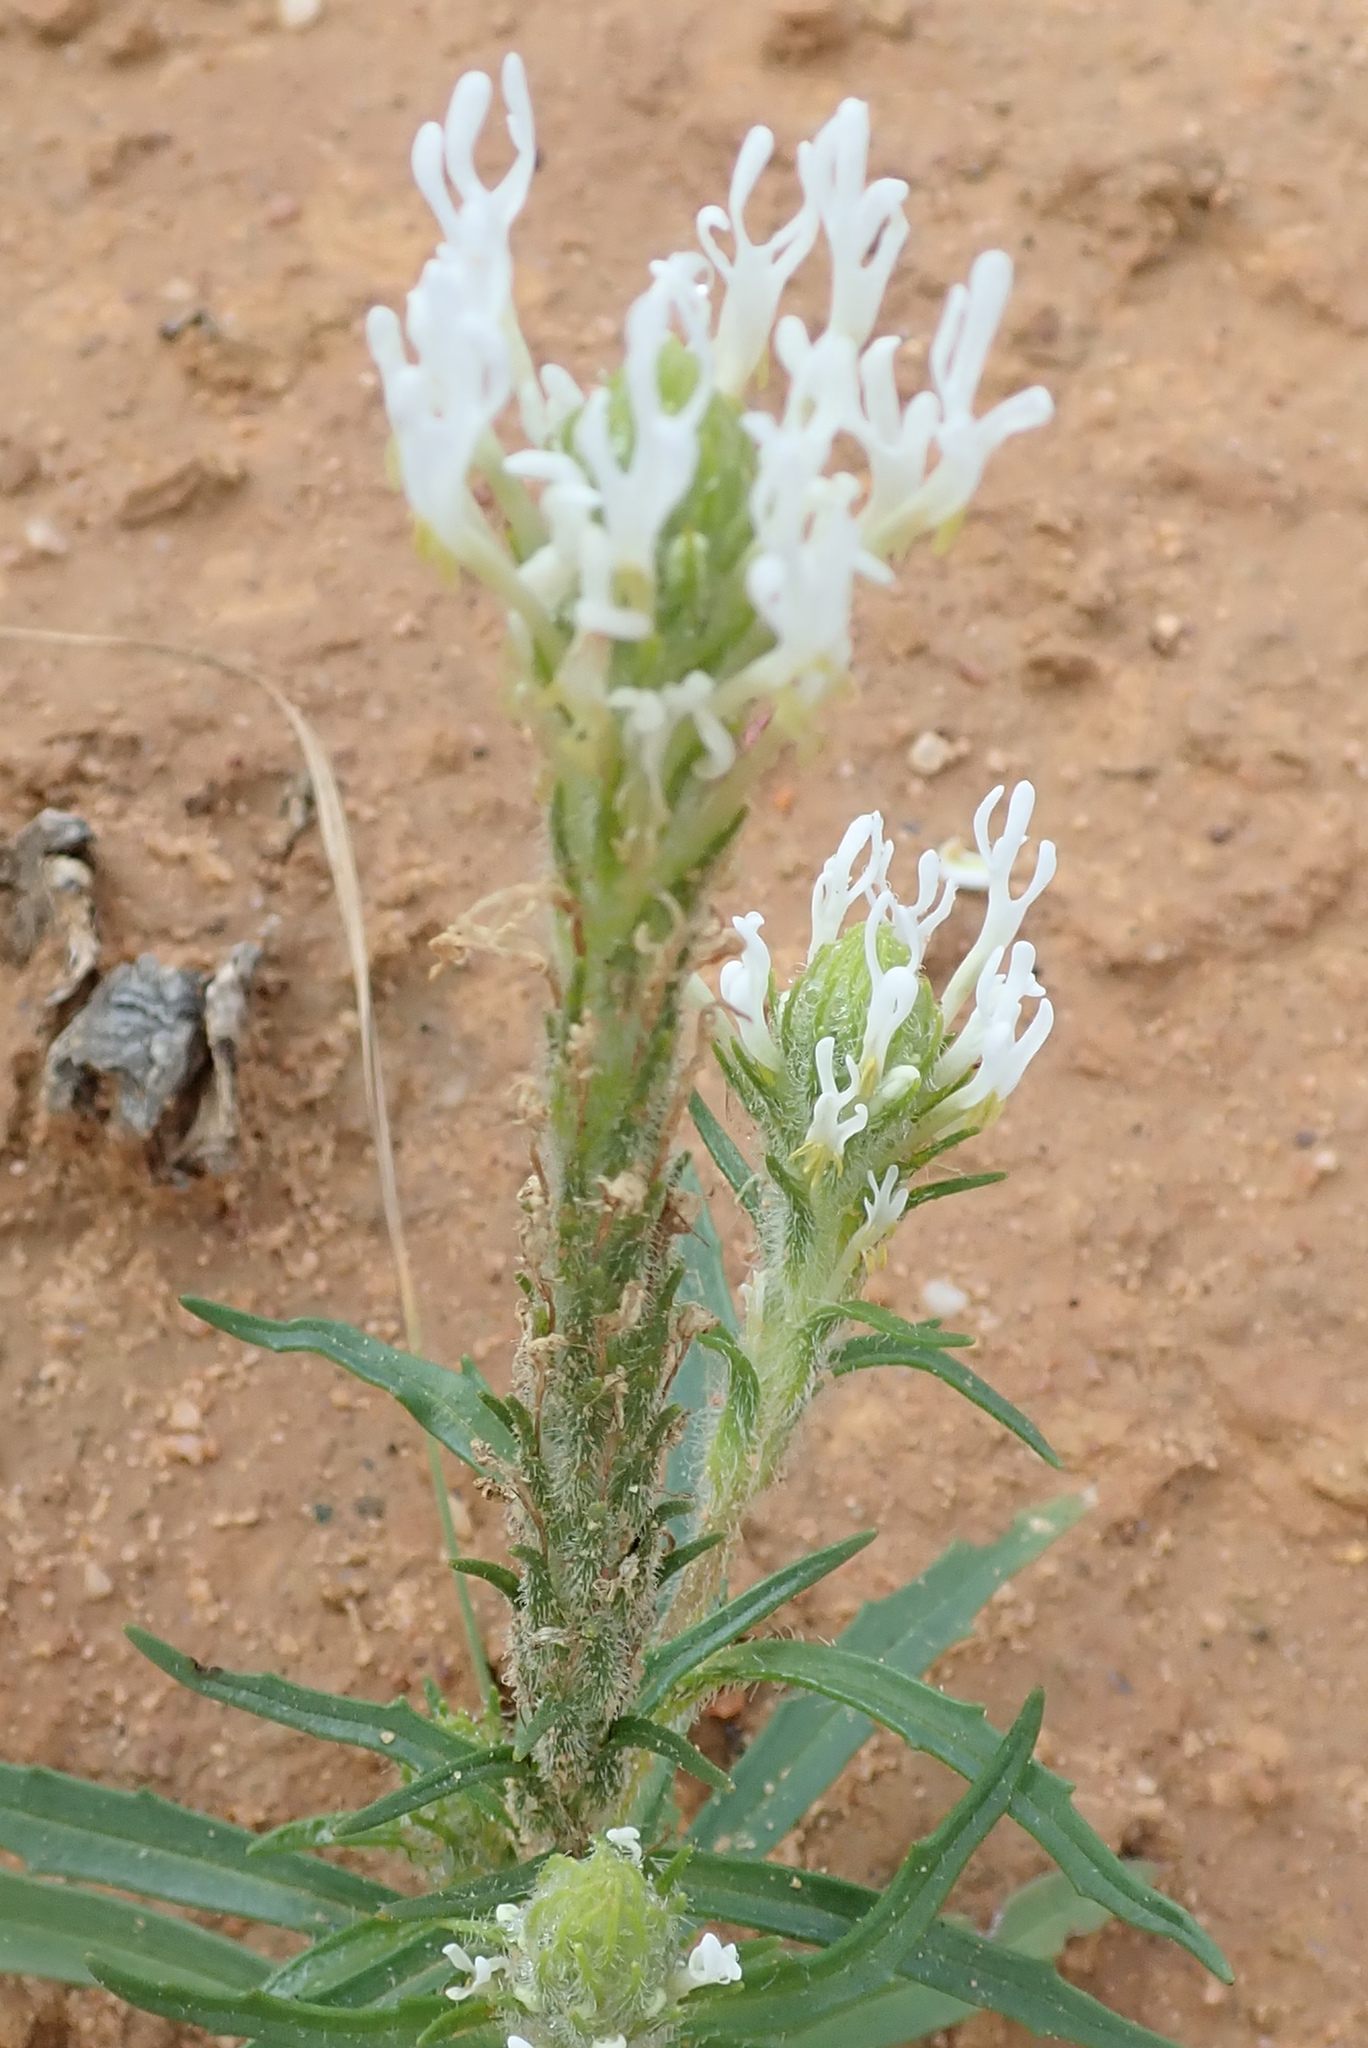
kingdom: Plantae
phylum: Tracheophyta
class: Magnoliopsida
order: Lamiales
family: Scrophulariaceae
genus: Dischisma
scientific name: Dischisma spicatum
